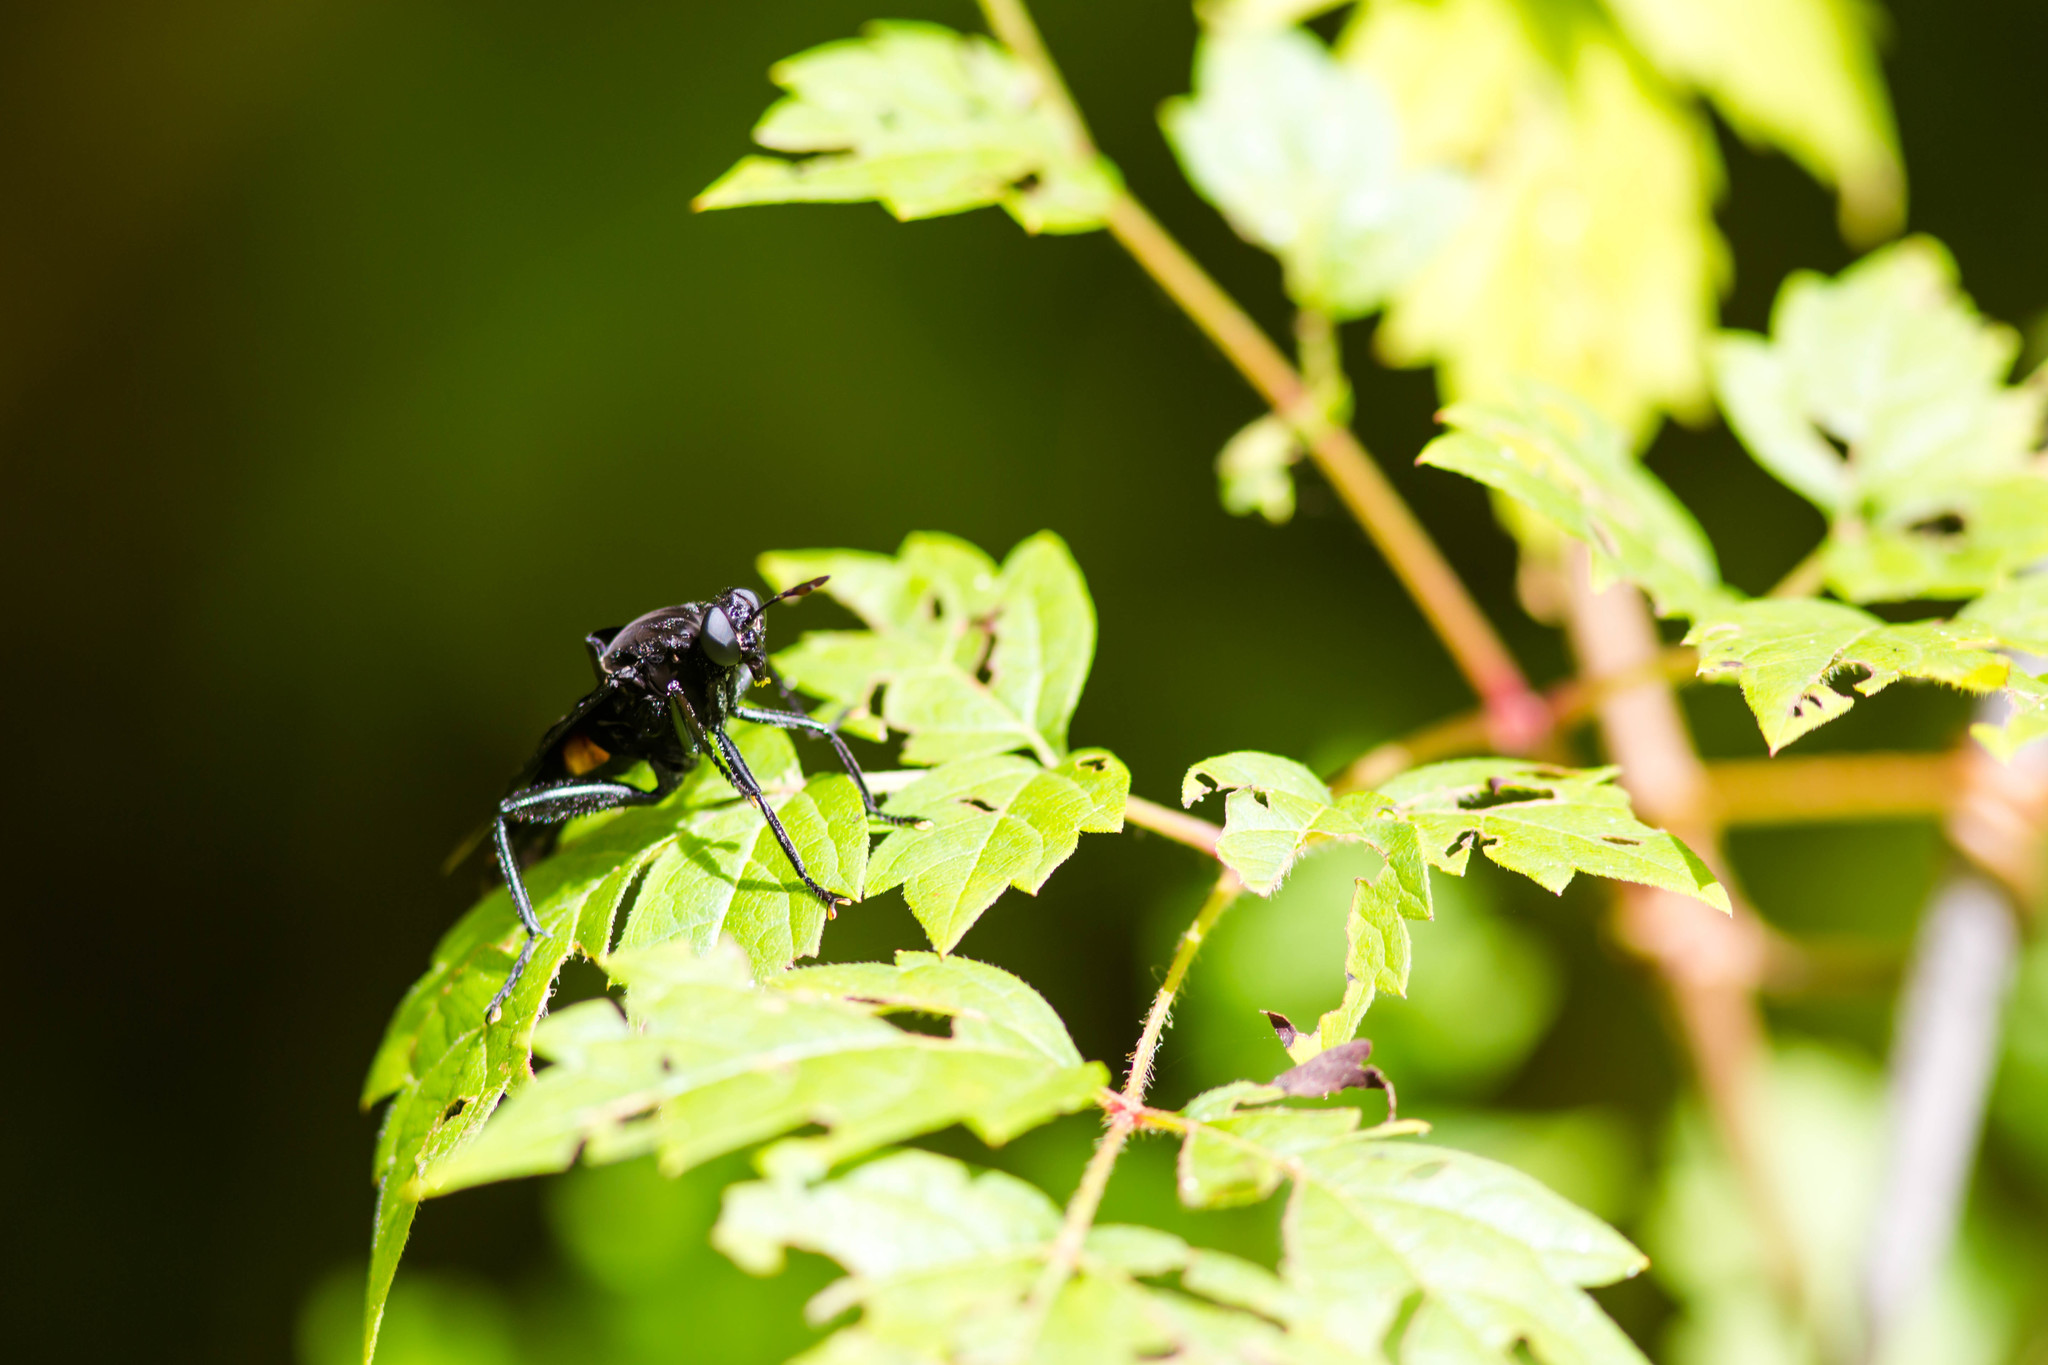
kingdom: Animalia
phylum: Arthropoda
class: Insecta
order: Diptera
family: Mydidae
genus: Mydas
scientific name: Mydas clavatus
